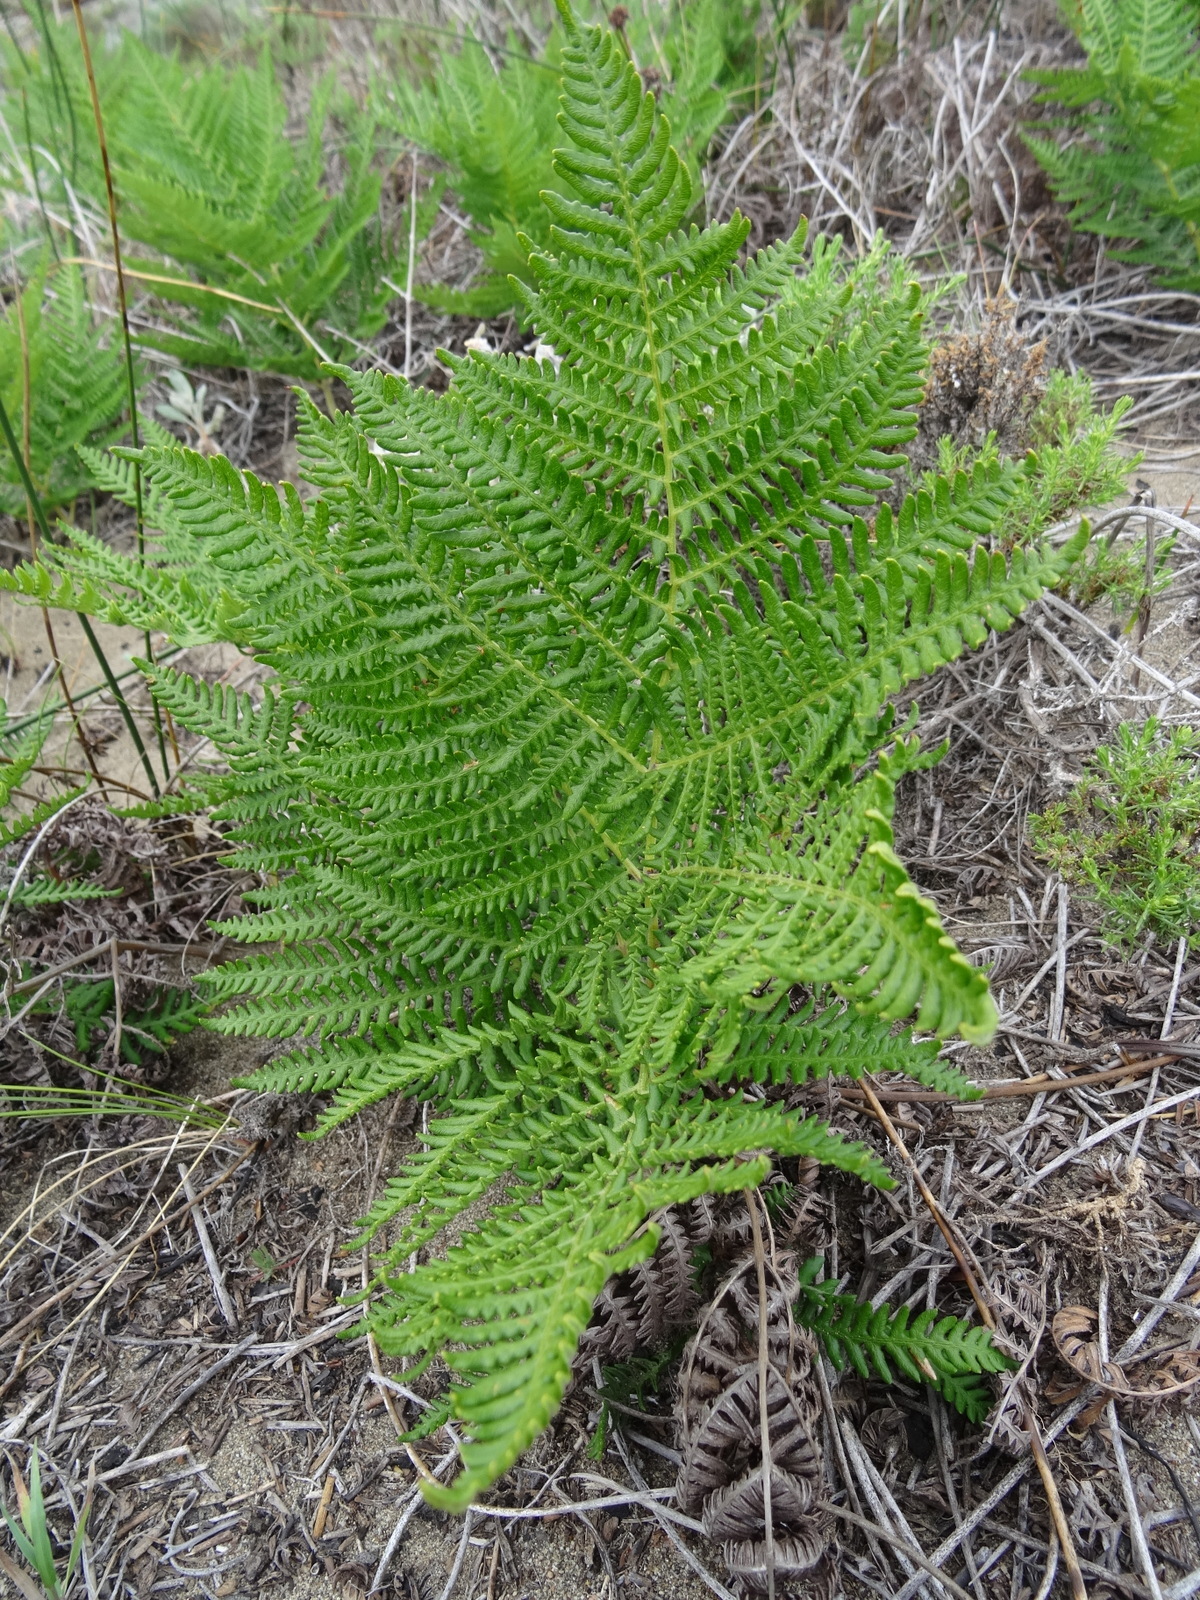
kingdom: Plantae
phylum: Tracheophyta
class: Polypodiopsida
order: Polypodiales
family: Dennstaedtiaceae
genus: Pteridium
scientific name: Pteridium aquilinum
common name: Bracken
